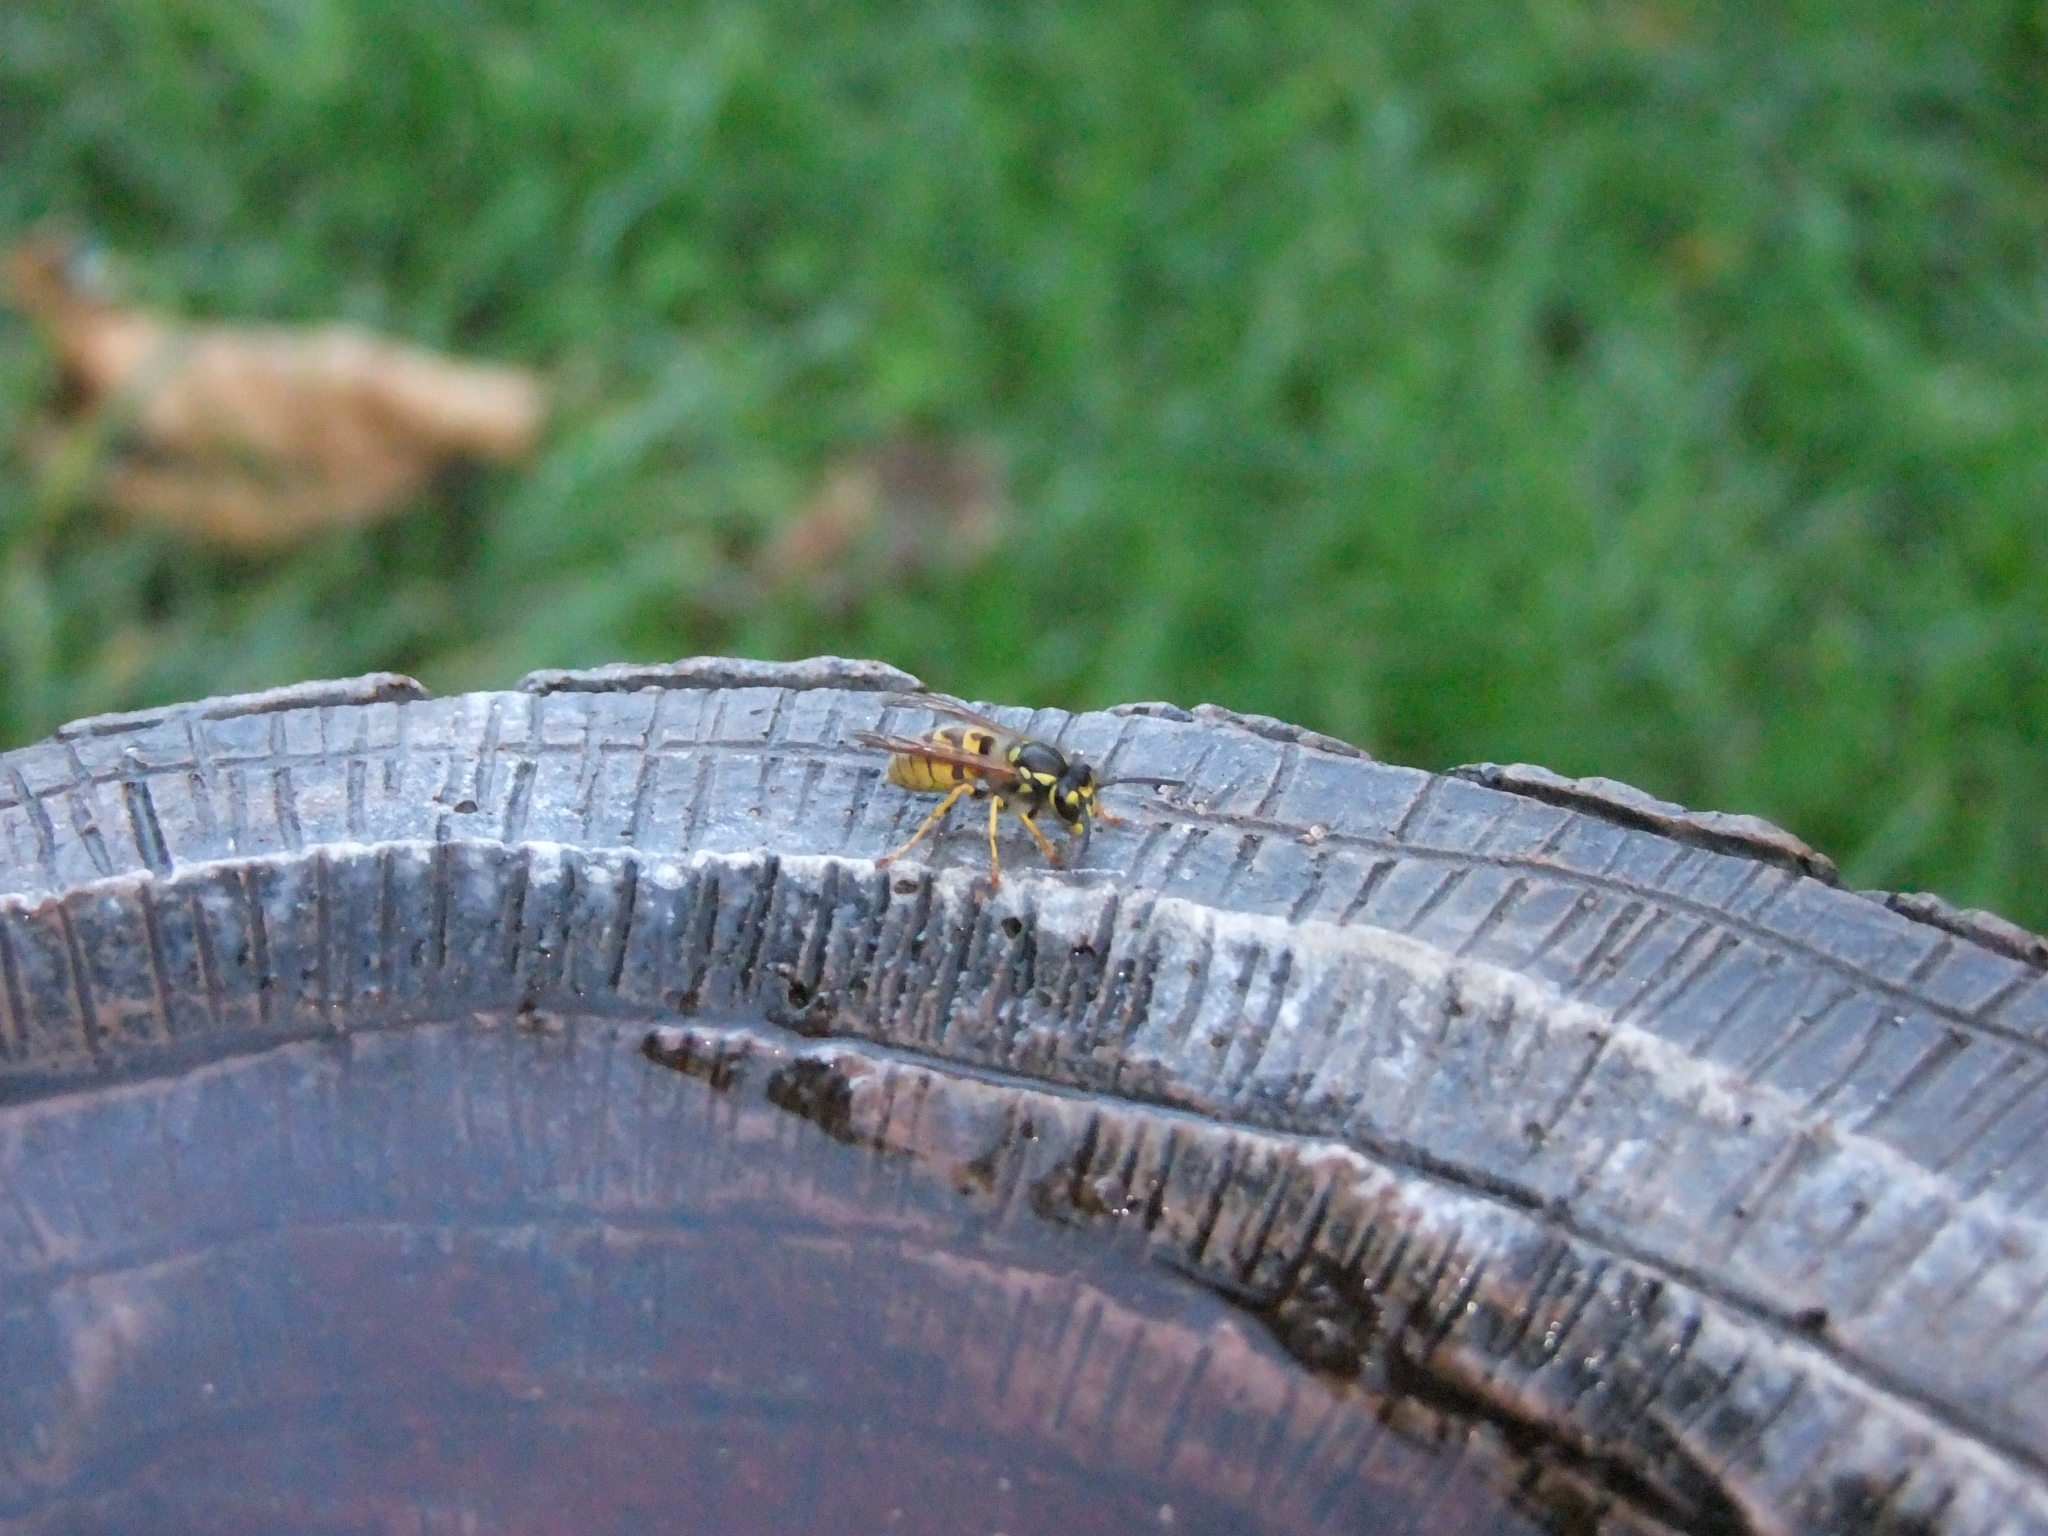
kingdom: Animalia
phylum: Arthropoda
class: Insecta
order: Hymenoptera
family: Vespidae
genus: Vespula
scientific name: Vespula germanica
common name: German wasp
